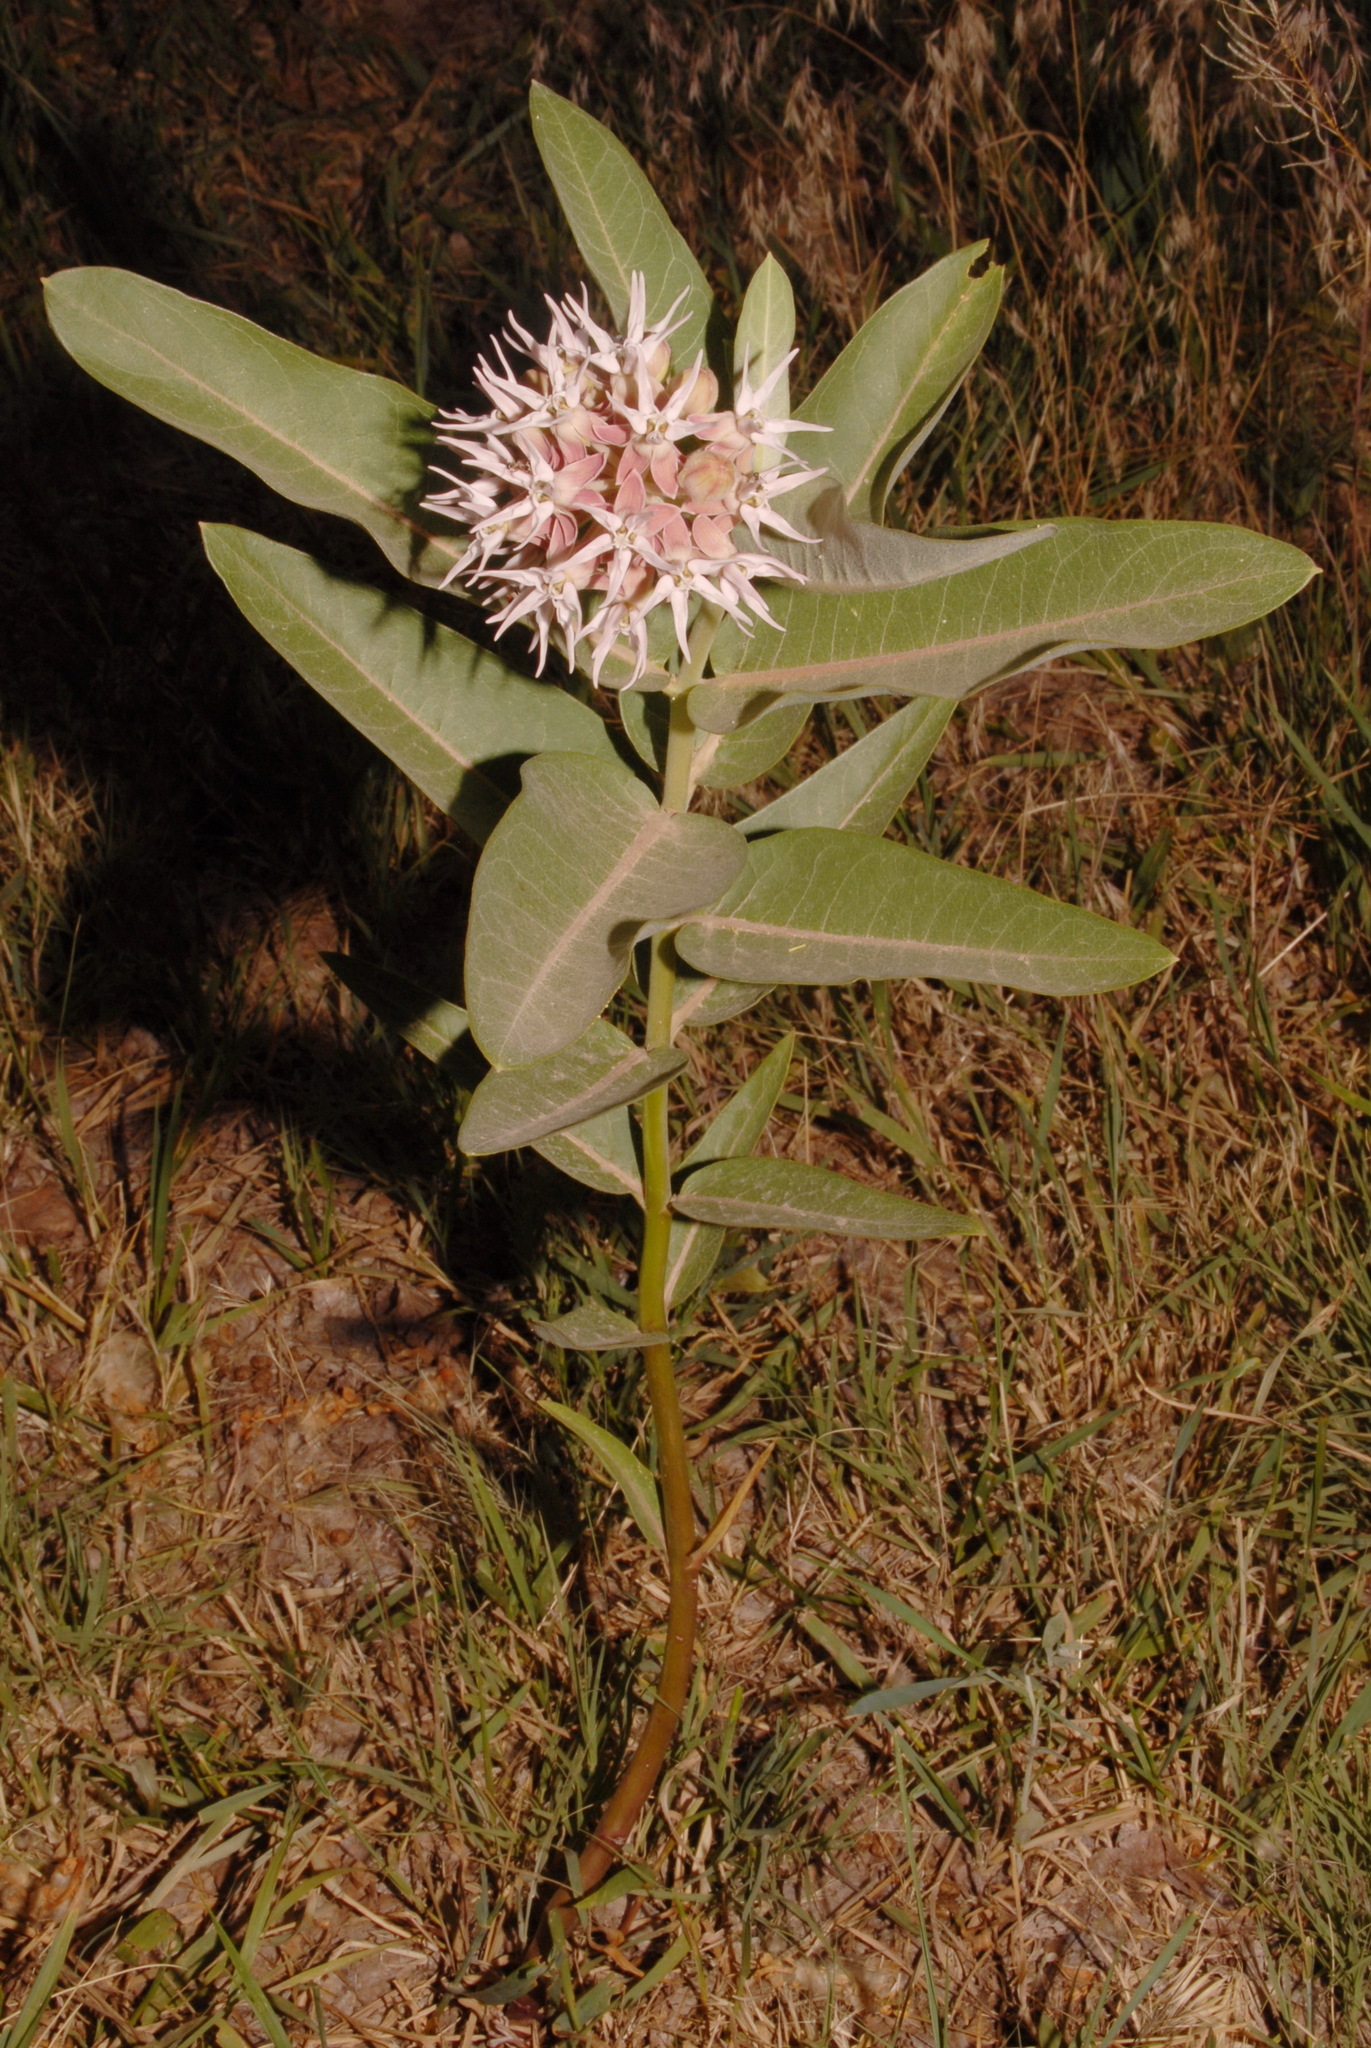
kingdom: Plantae
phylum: Tracheophyta
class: Magnoliopsida
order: Gentianales
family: Apocynaceae
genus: Asclepias
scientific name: Asclepias speciosa
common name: Showy milkweed
